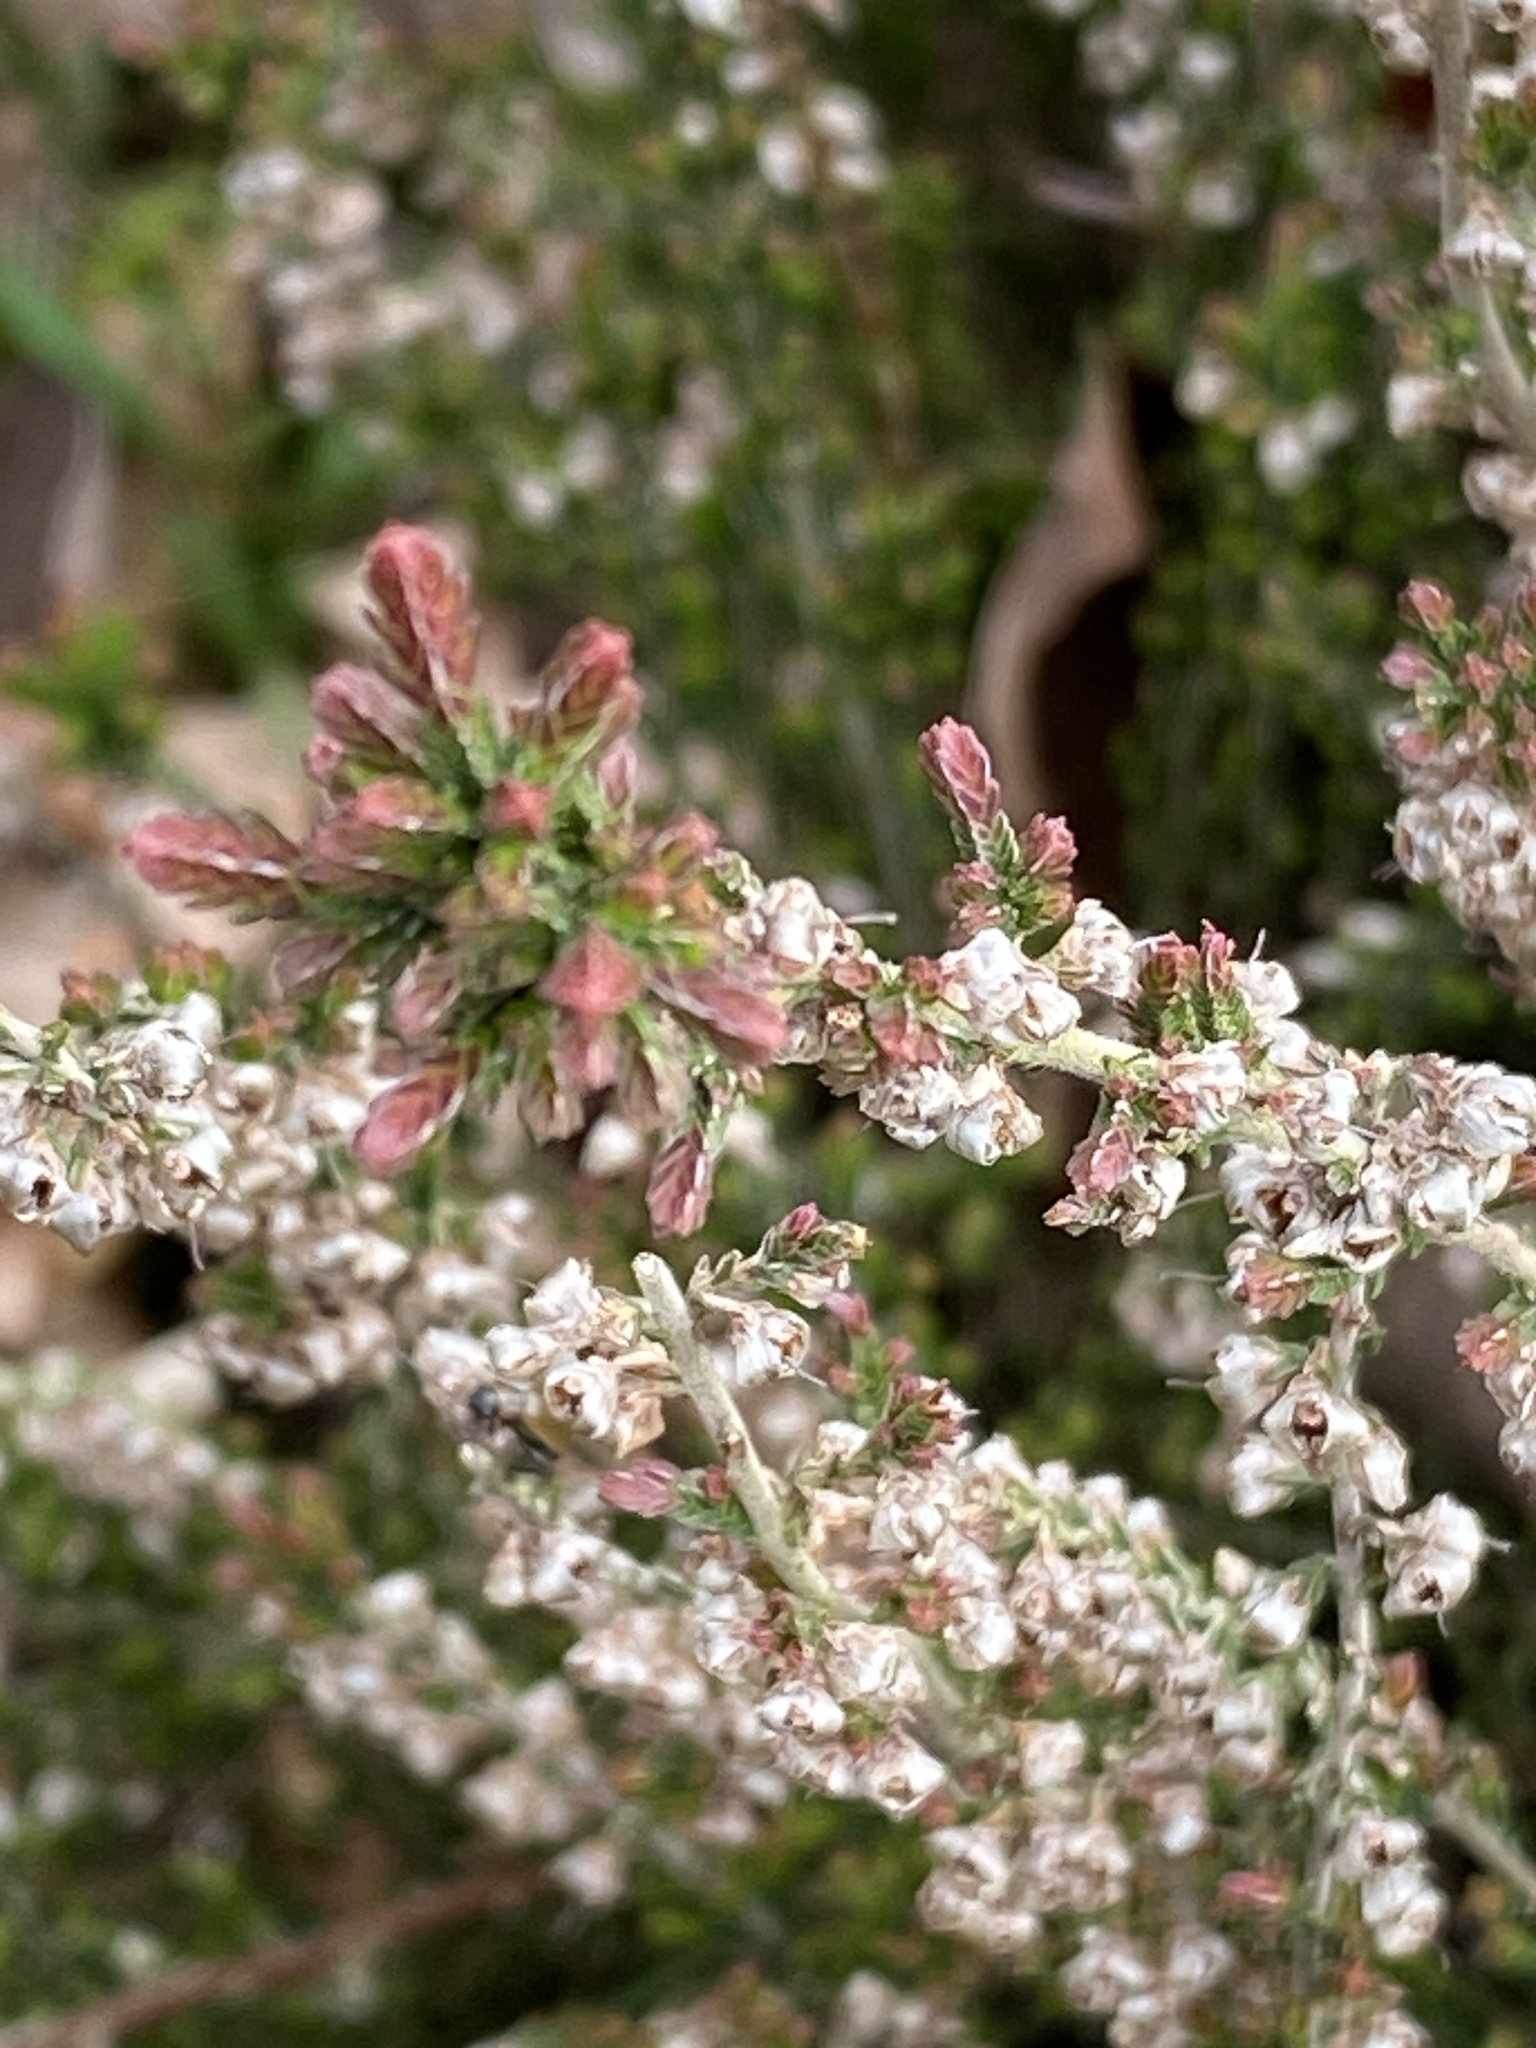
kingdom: Plantae
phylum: Tracheophyta
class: Magnoliopsida
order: Ericales
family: Ericaceae
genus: Calluna
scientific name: Calluna vulgaris
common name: Heather
